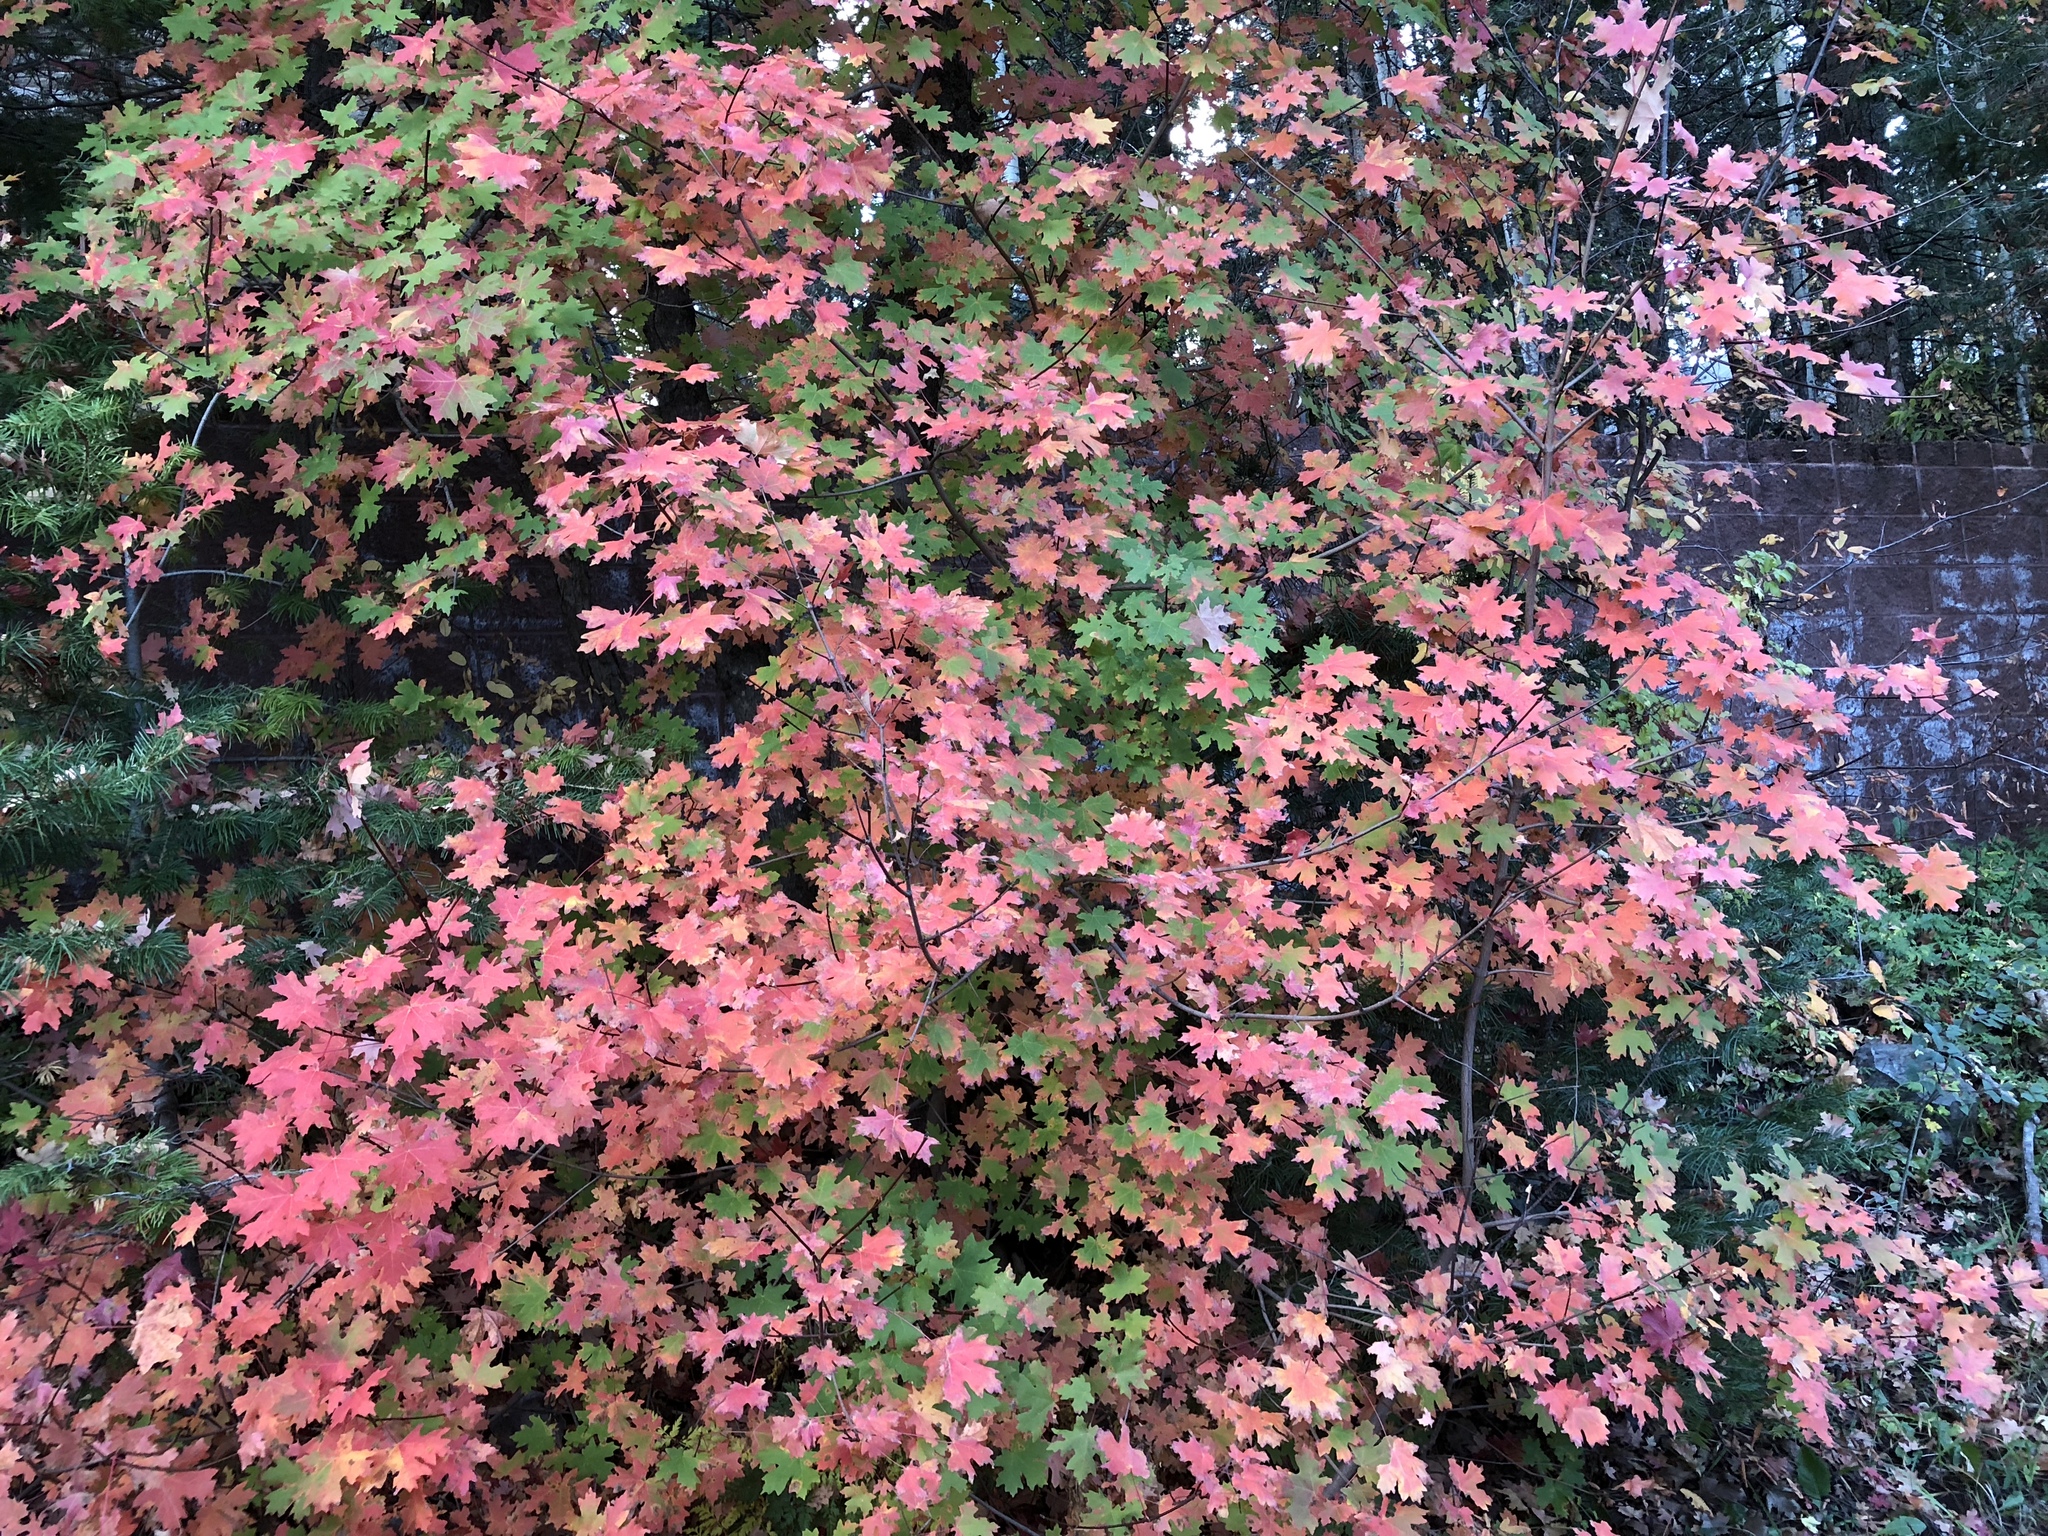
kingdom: Plantae
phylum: Tracheophyta
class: Magnoliopsida
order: Sapindales
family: Sapindaceae
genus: Acer
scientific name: Acer grandidentatum
